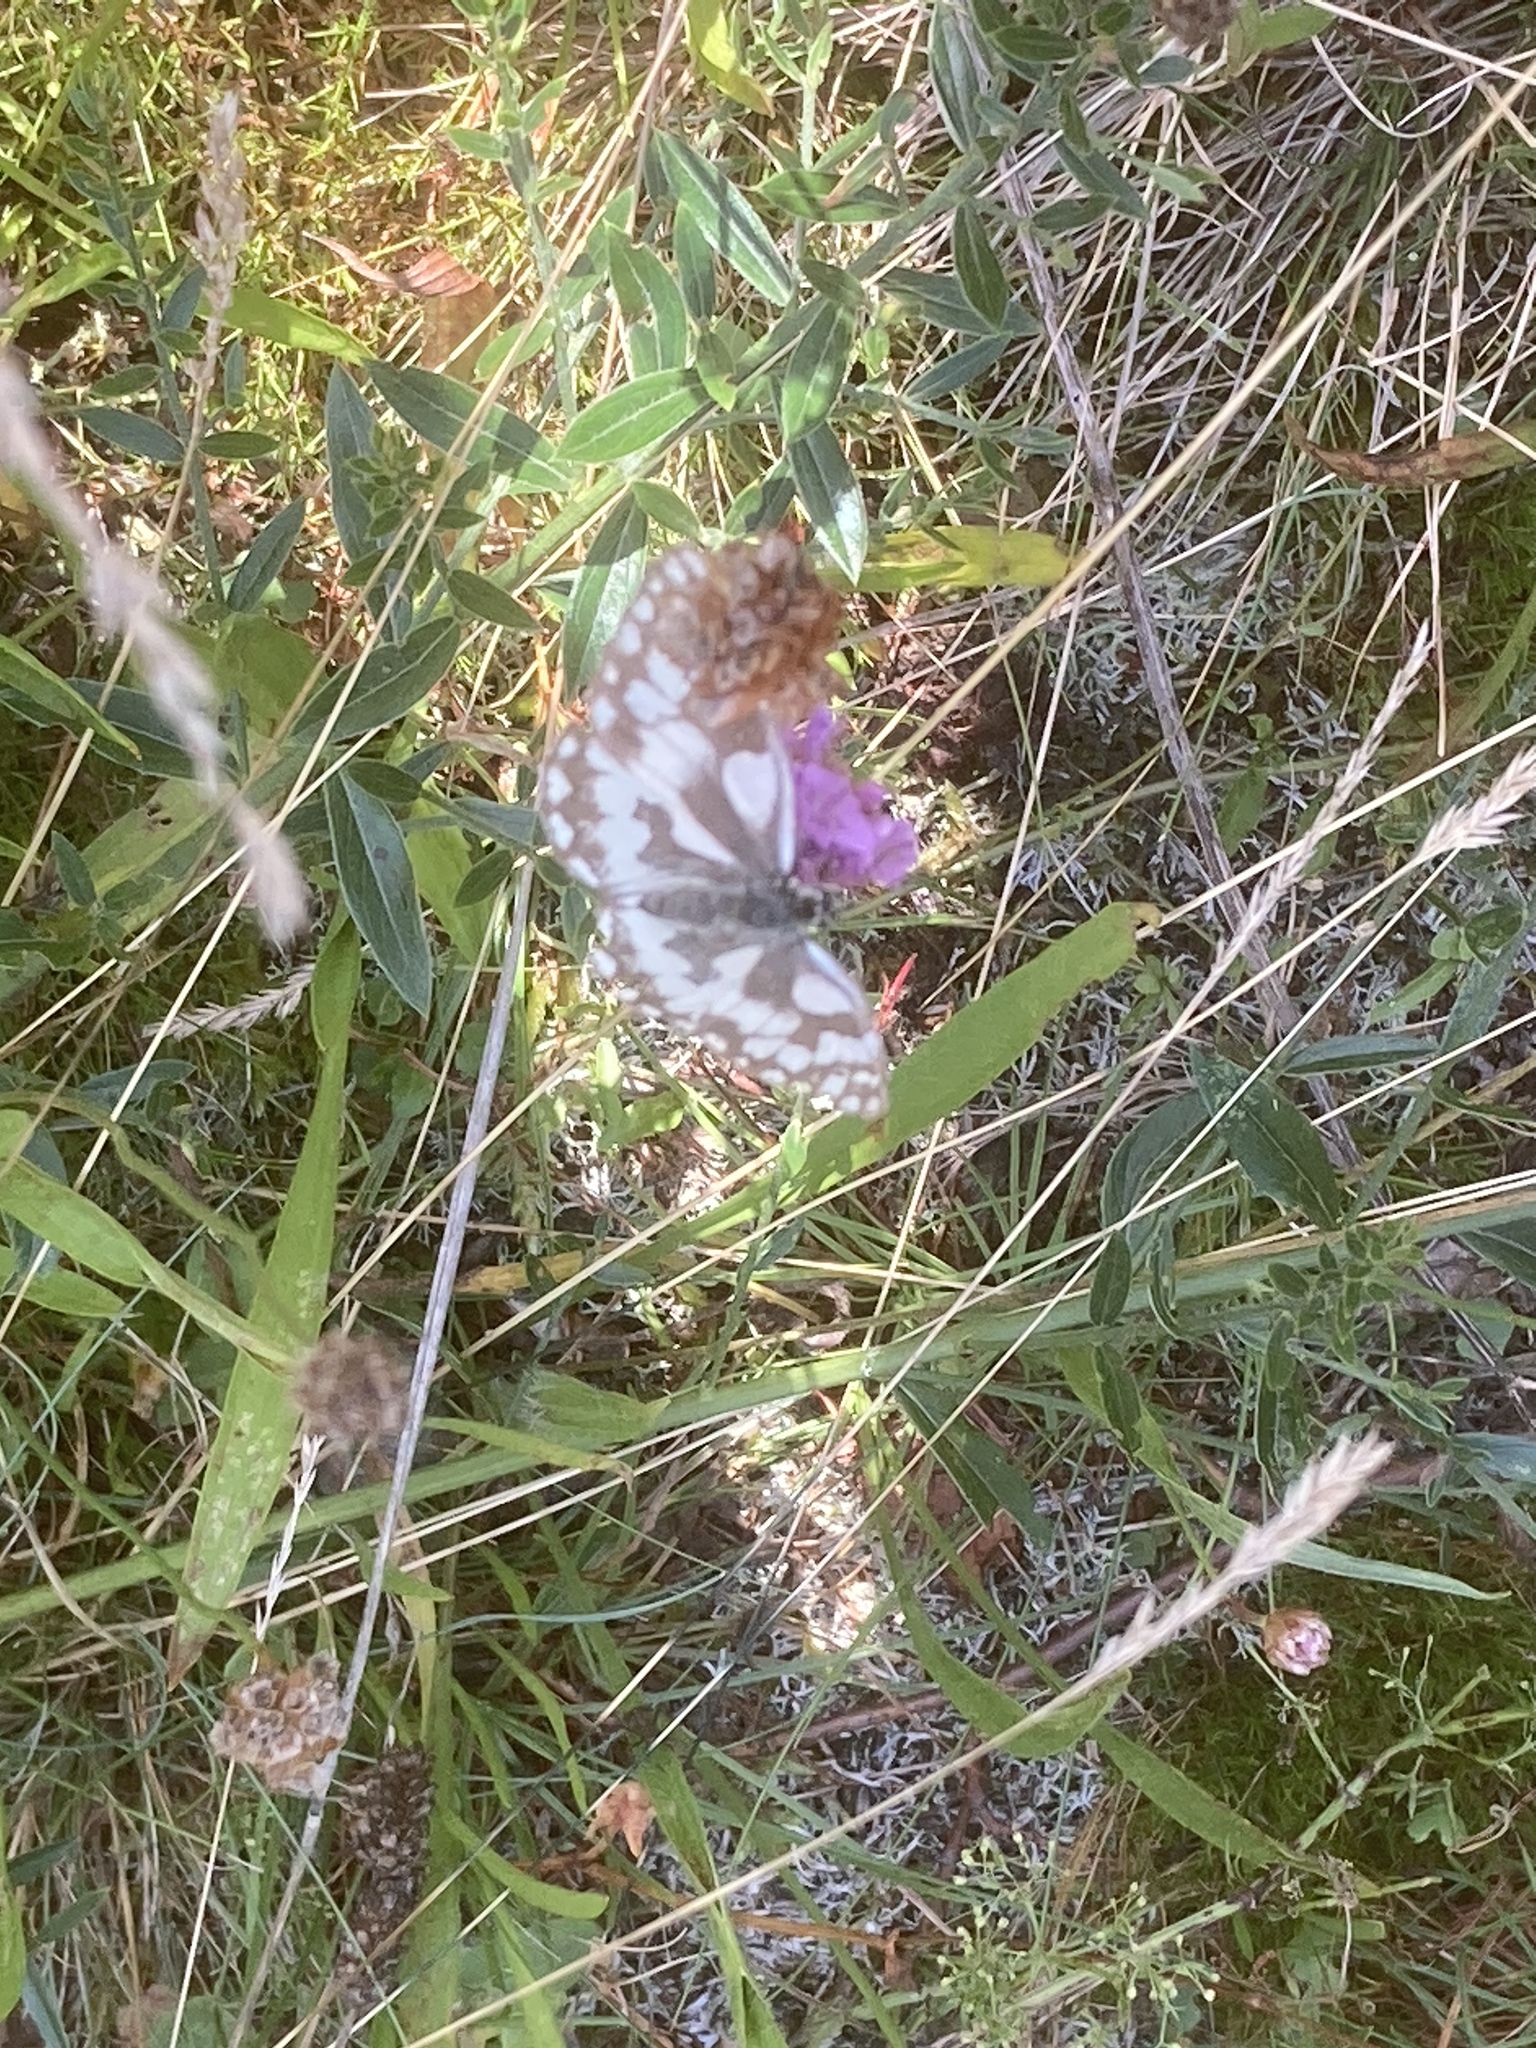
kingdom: Animalia
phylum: Arthropoda
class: Insecta
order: Lepidoptera
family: Nymphalidae
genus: Melanargia
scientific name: Melanargia galathea
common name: Marbled white
